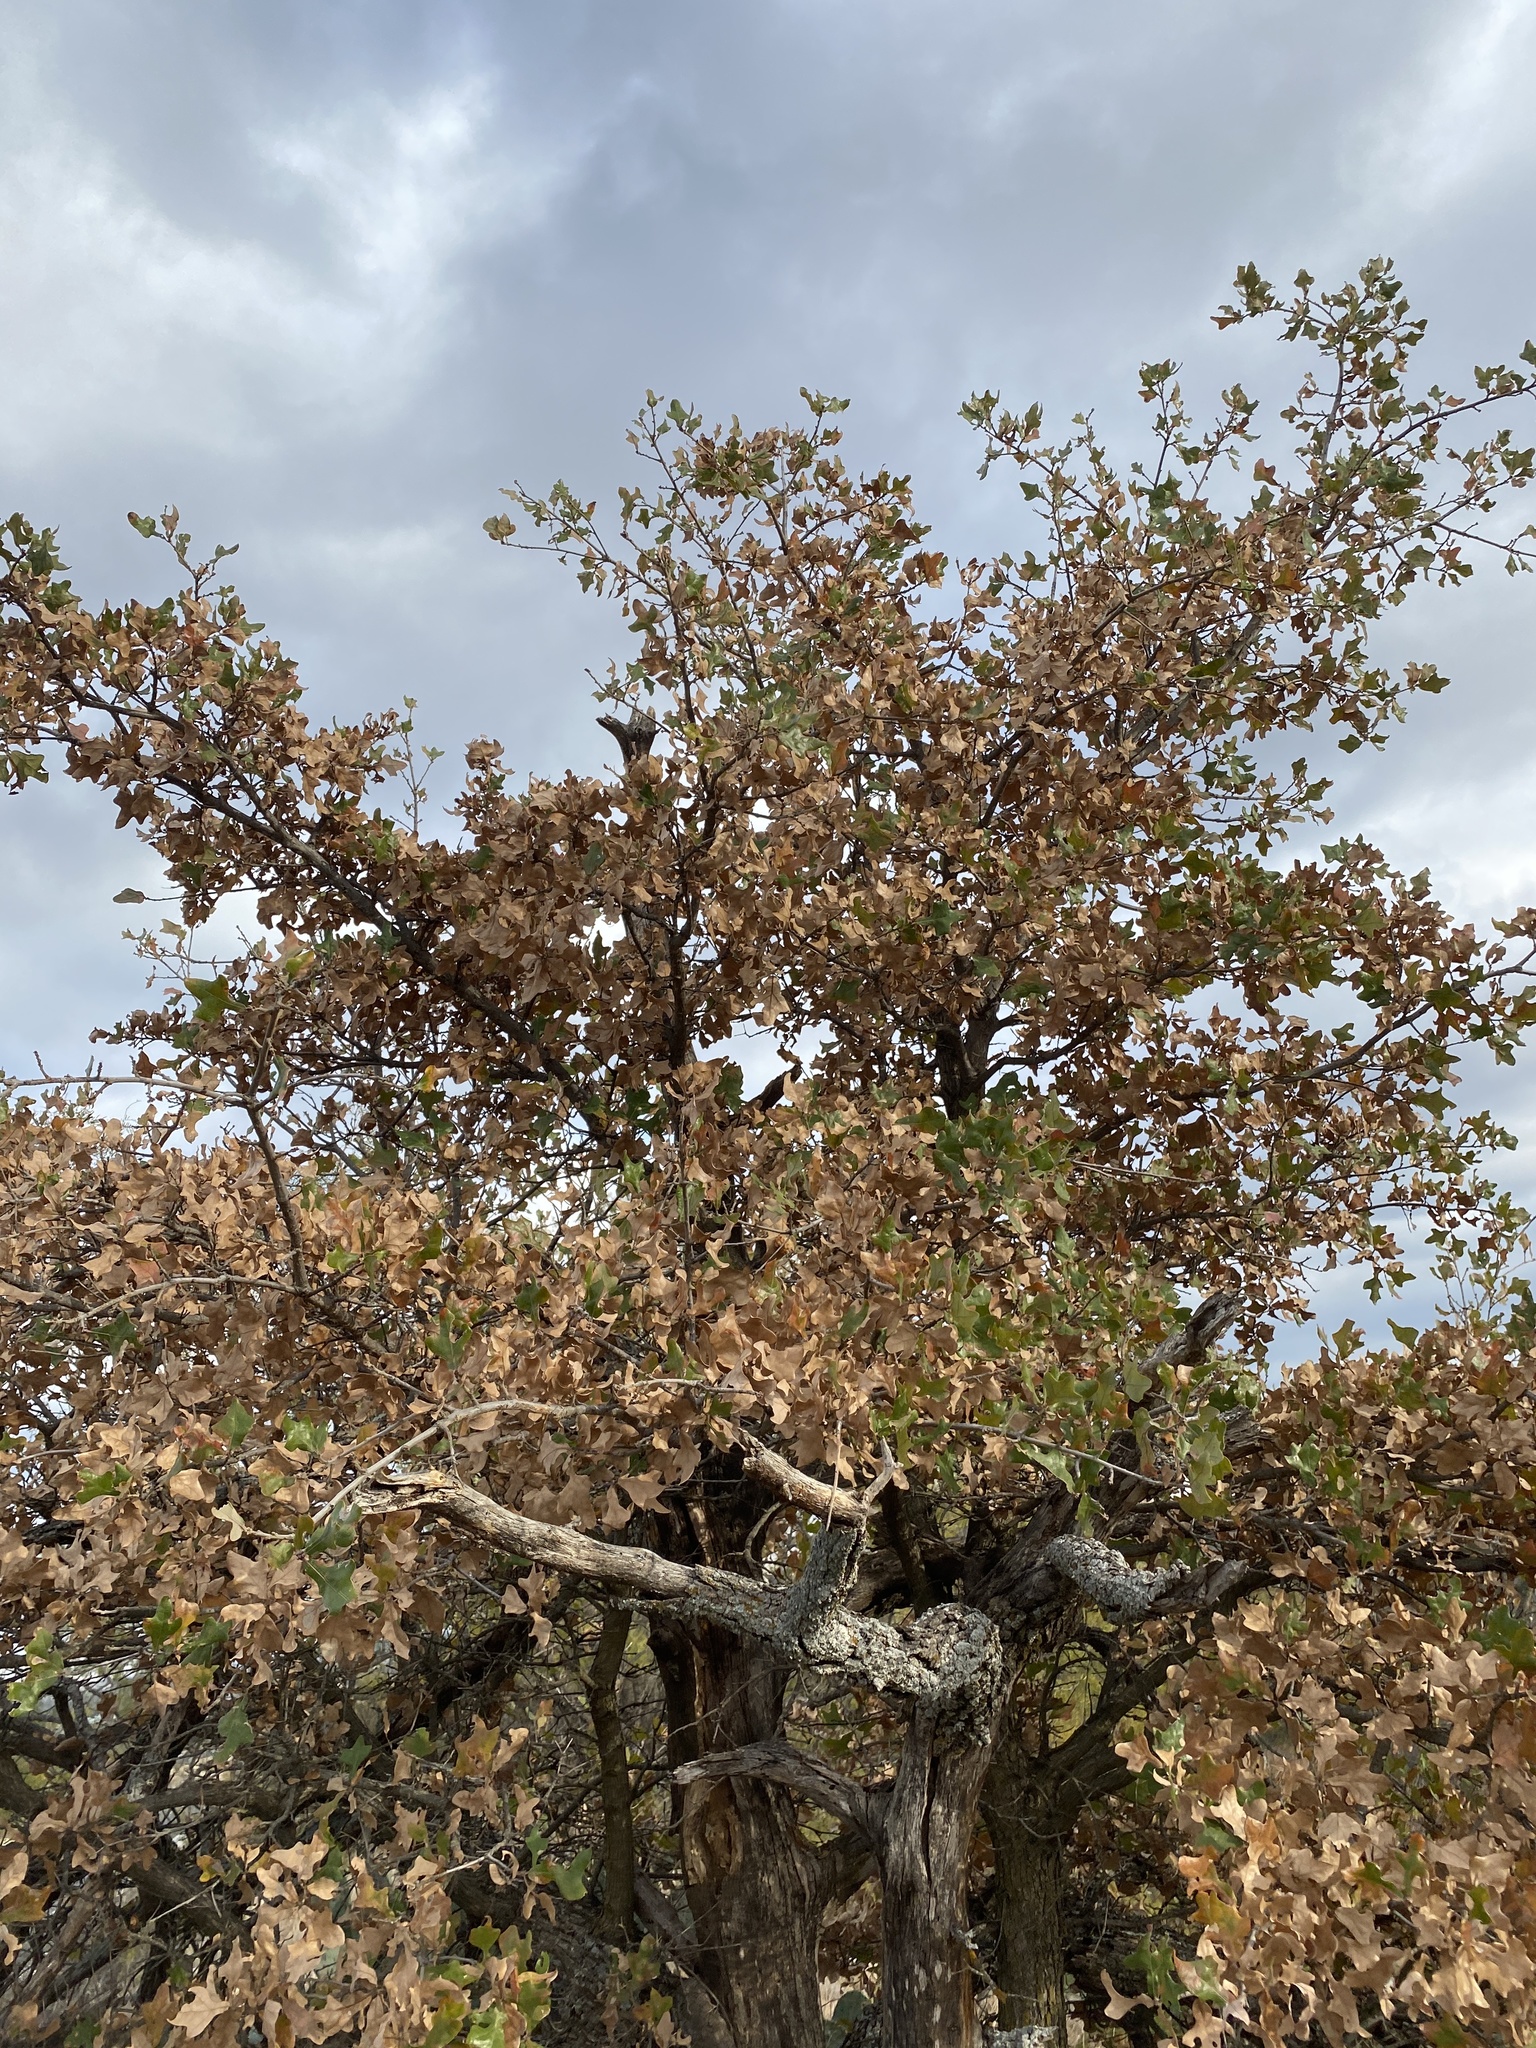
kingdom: Plantae
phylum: Tracheophyta
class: Magnoliopsida
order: Fagales
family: Fagaceae
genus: Quercus
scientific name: Quercus marilandica
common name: Blackjack oak
